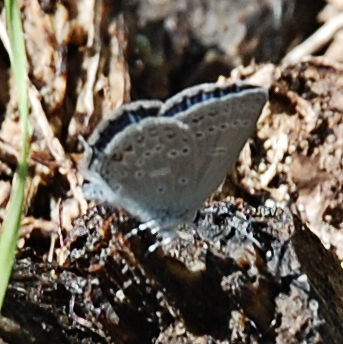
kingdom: Animalia
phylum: Arthropoda
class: Insecta
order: Lepidoptera
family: Lycaenidae
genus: Elkalyce
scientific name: Elkalyce amyntula
